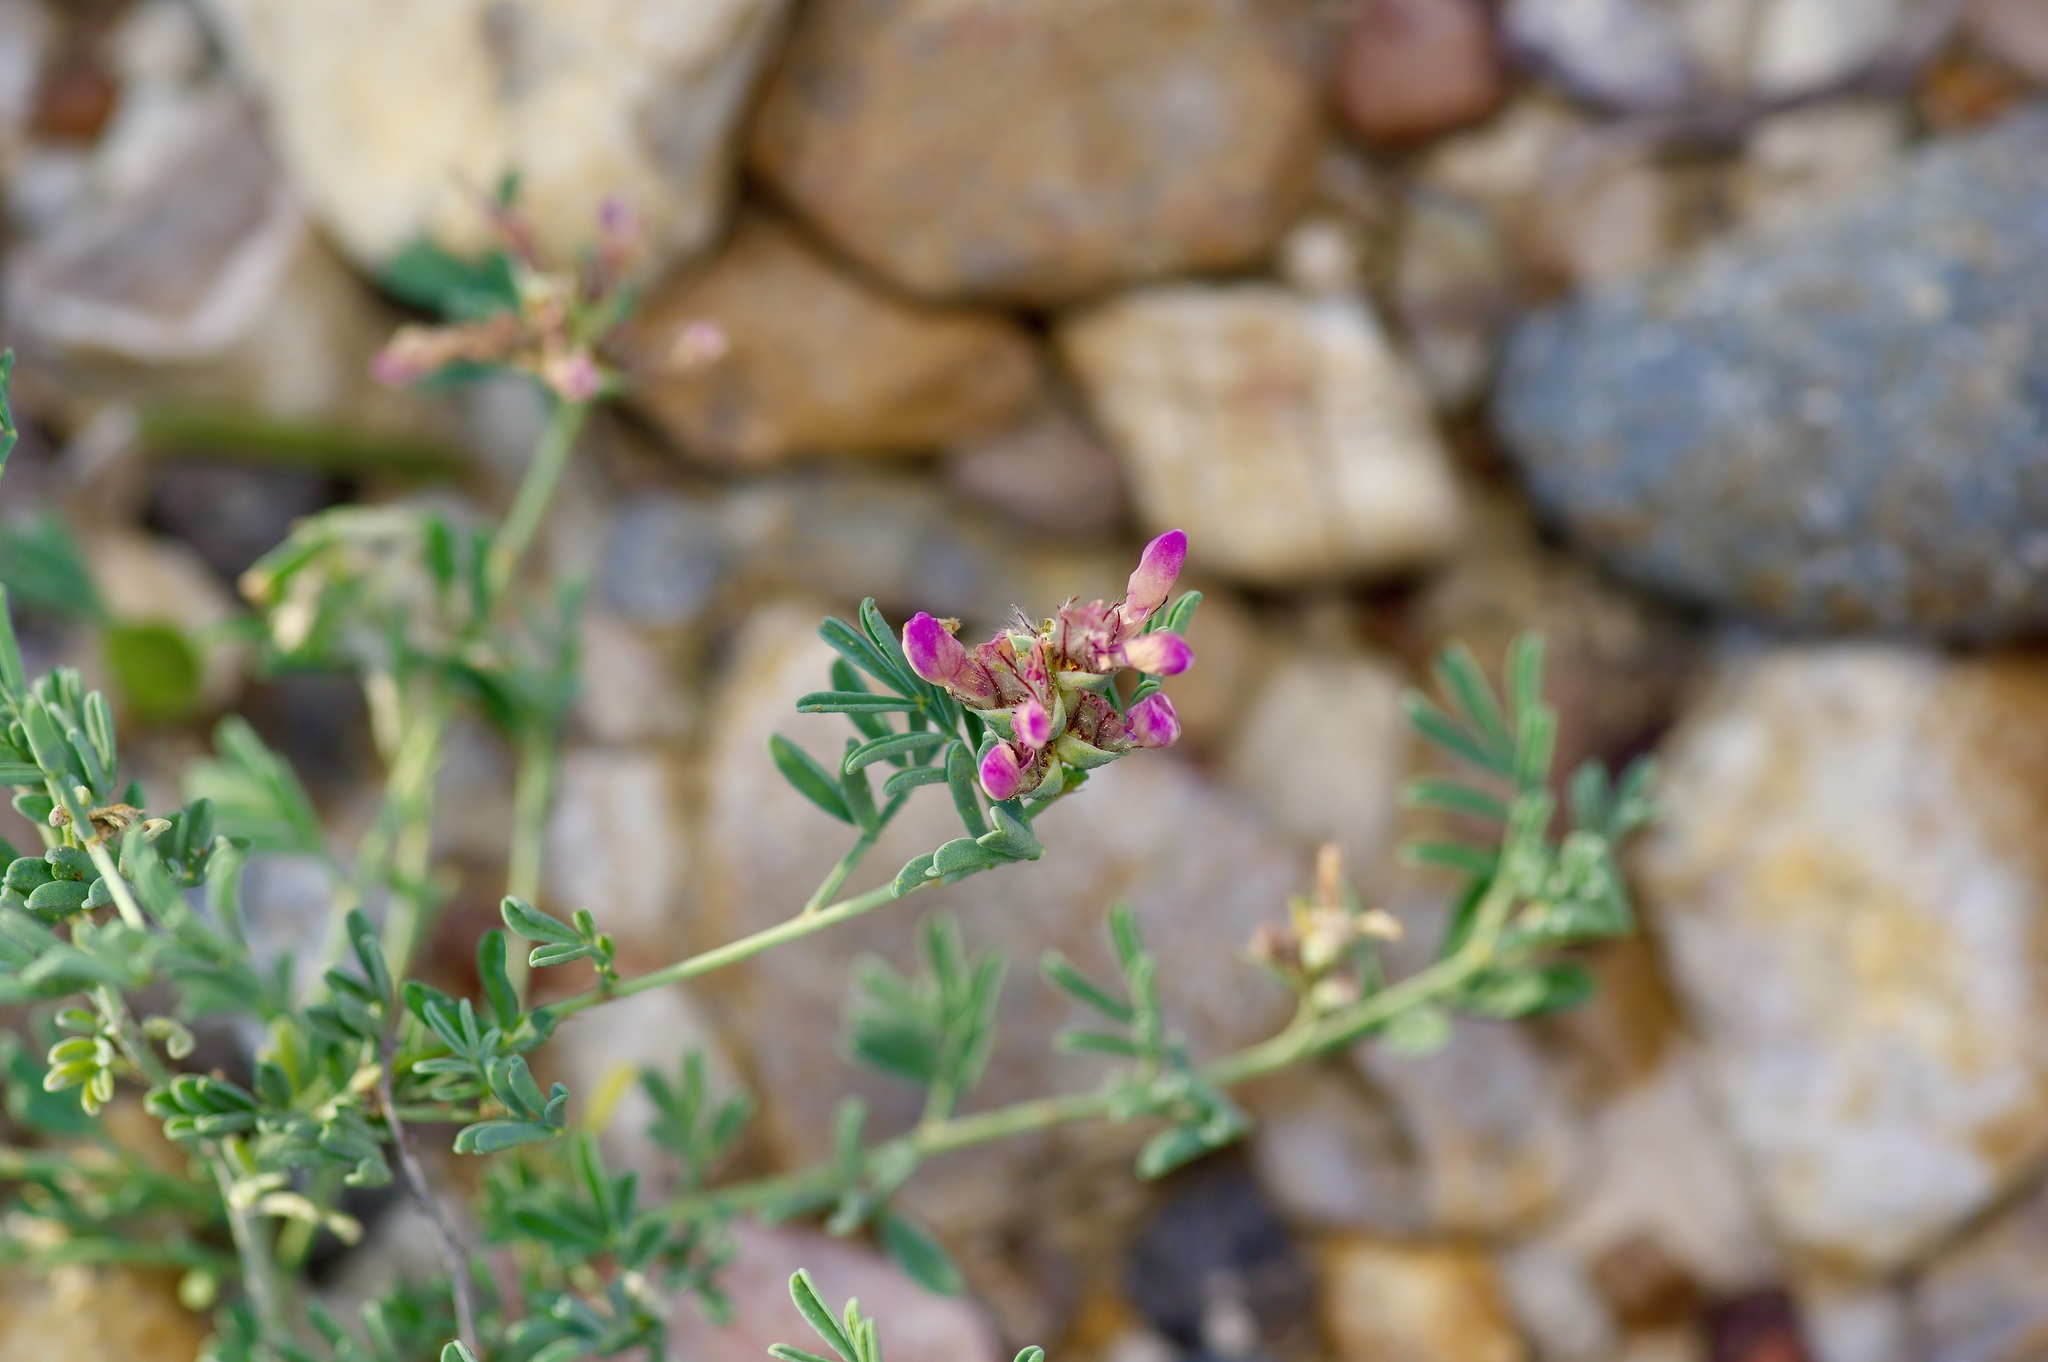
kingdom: Plantae
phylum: Tracheophyta
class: Magnoliopsida
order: Fabales
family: Fabaceae
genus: Dalea
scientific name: Dalea pogonathera
